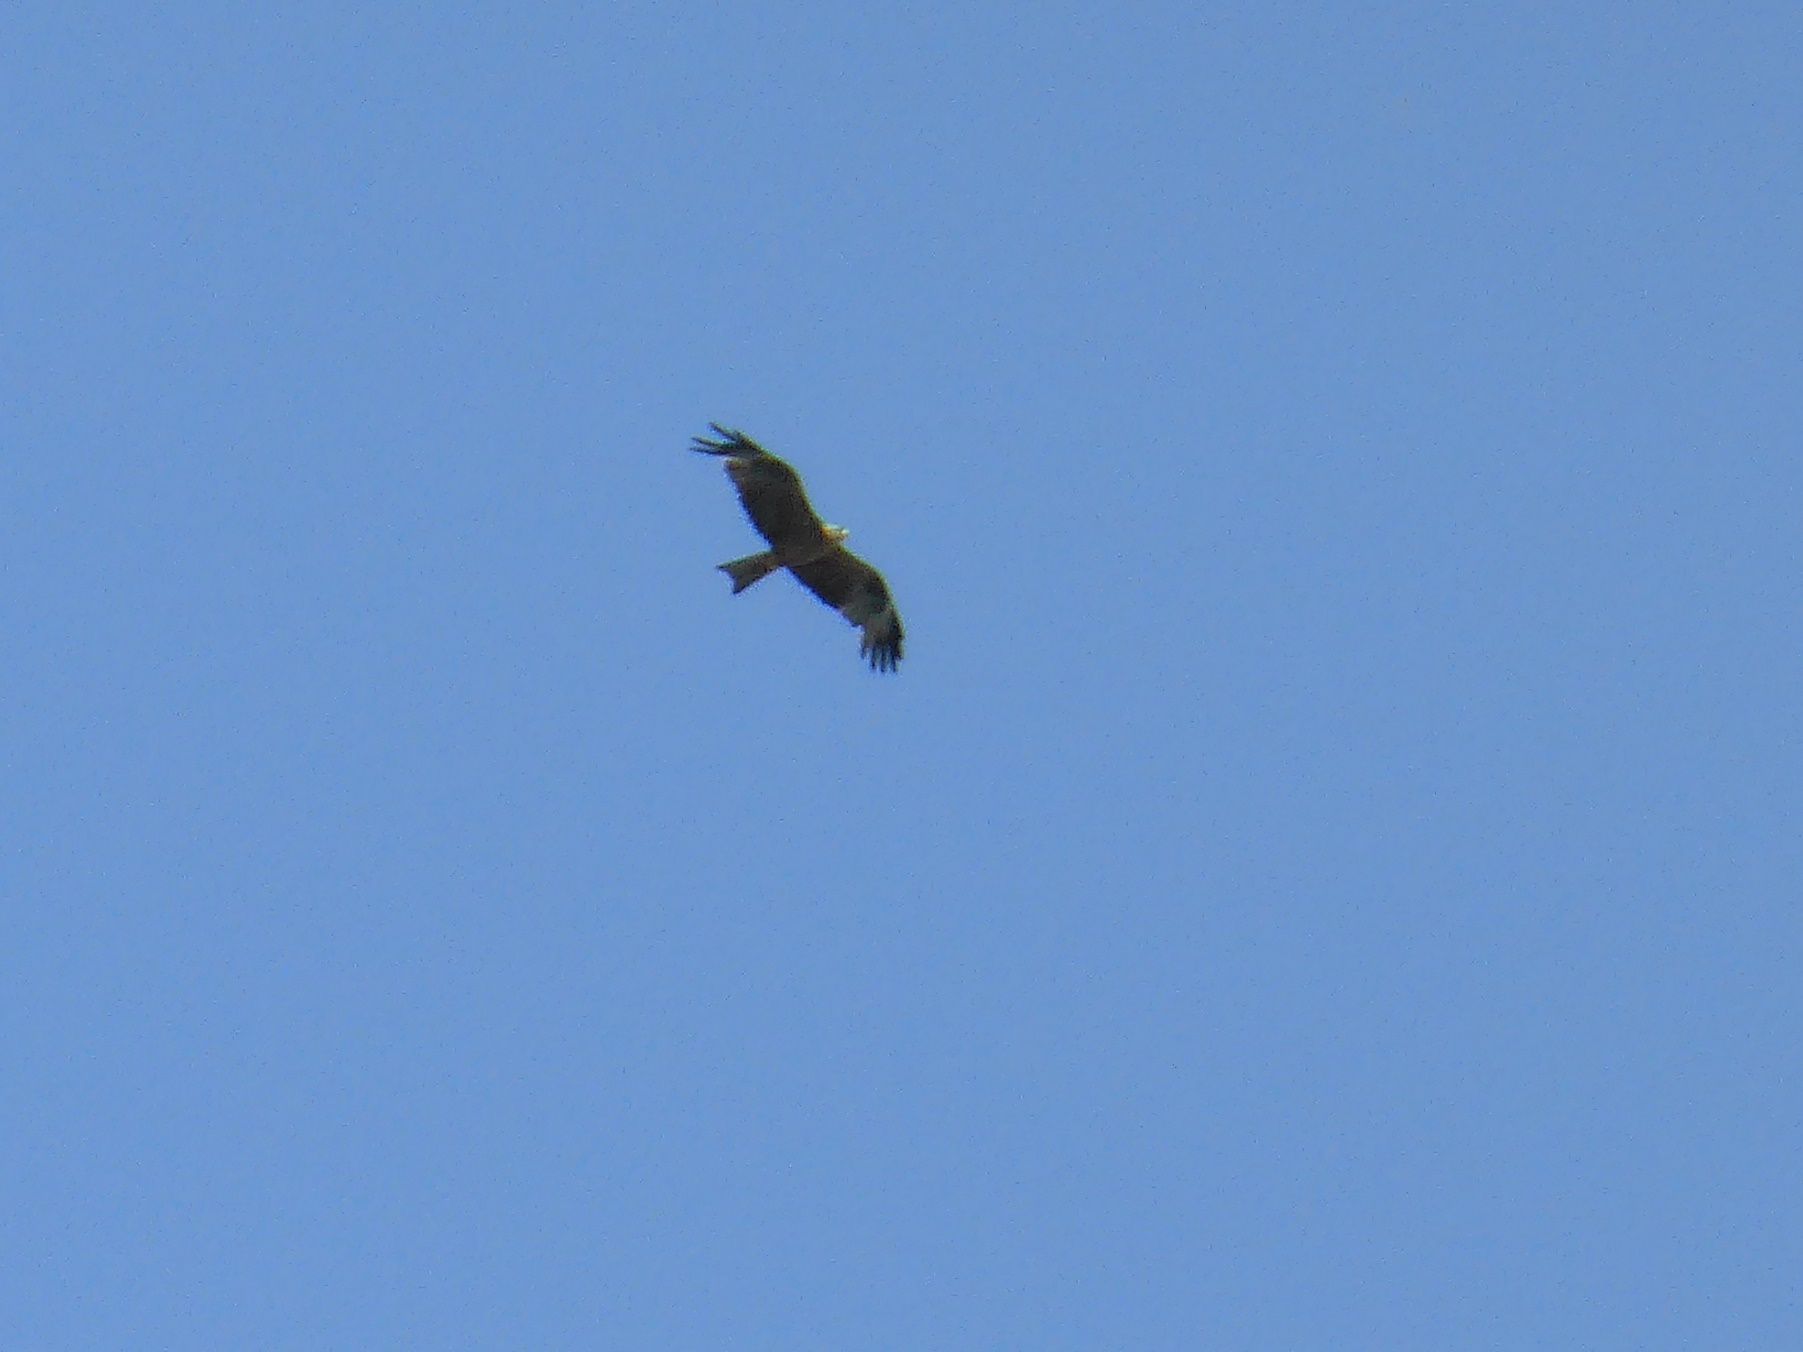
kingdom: Animalia
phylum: Chordata
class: Aves
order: Accipitriformes
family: Accipitridae
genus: Milvus
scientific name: Milvus migrans
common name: Black kite
